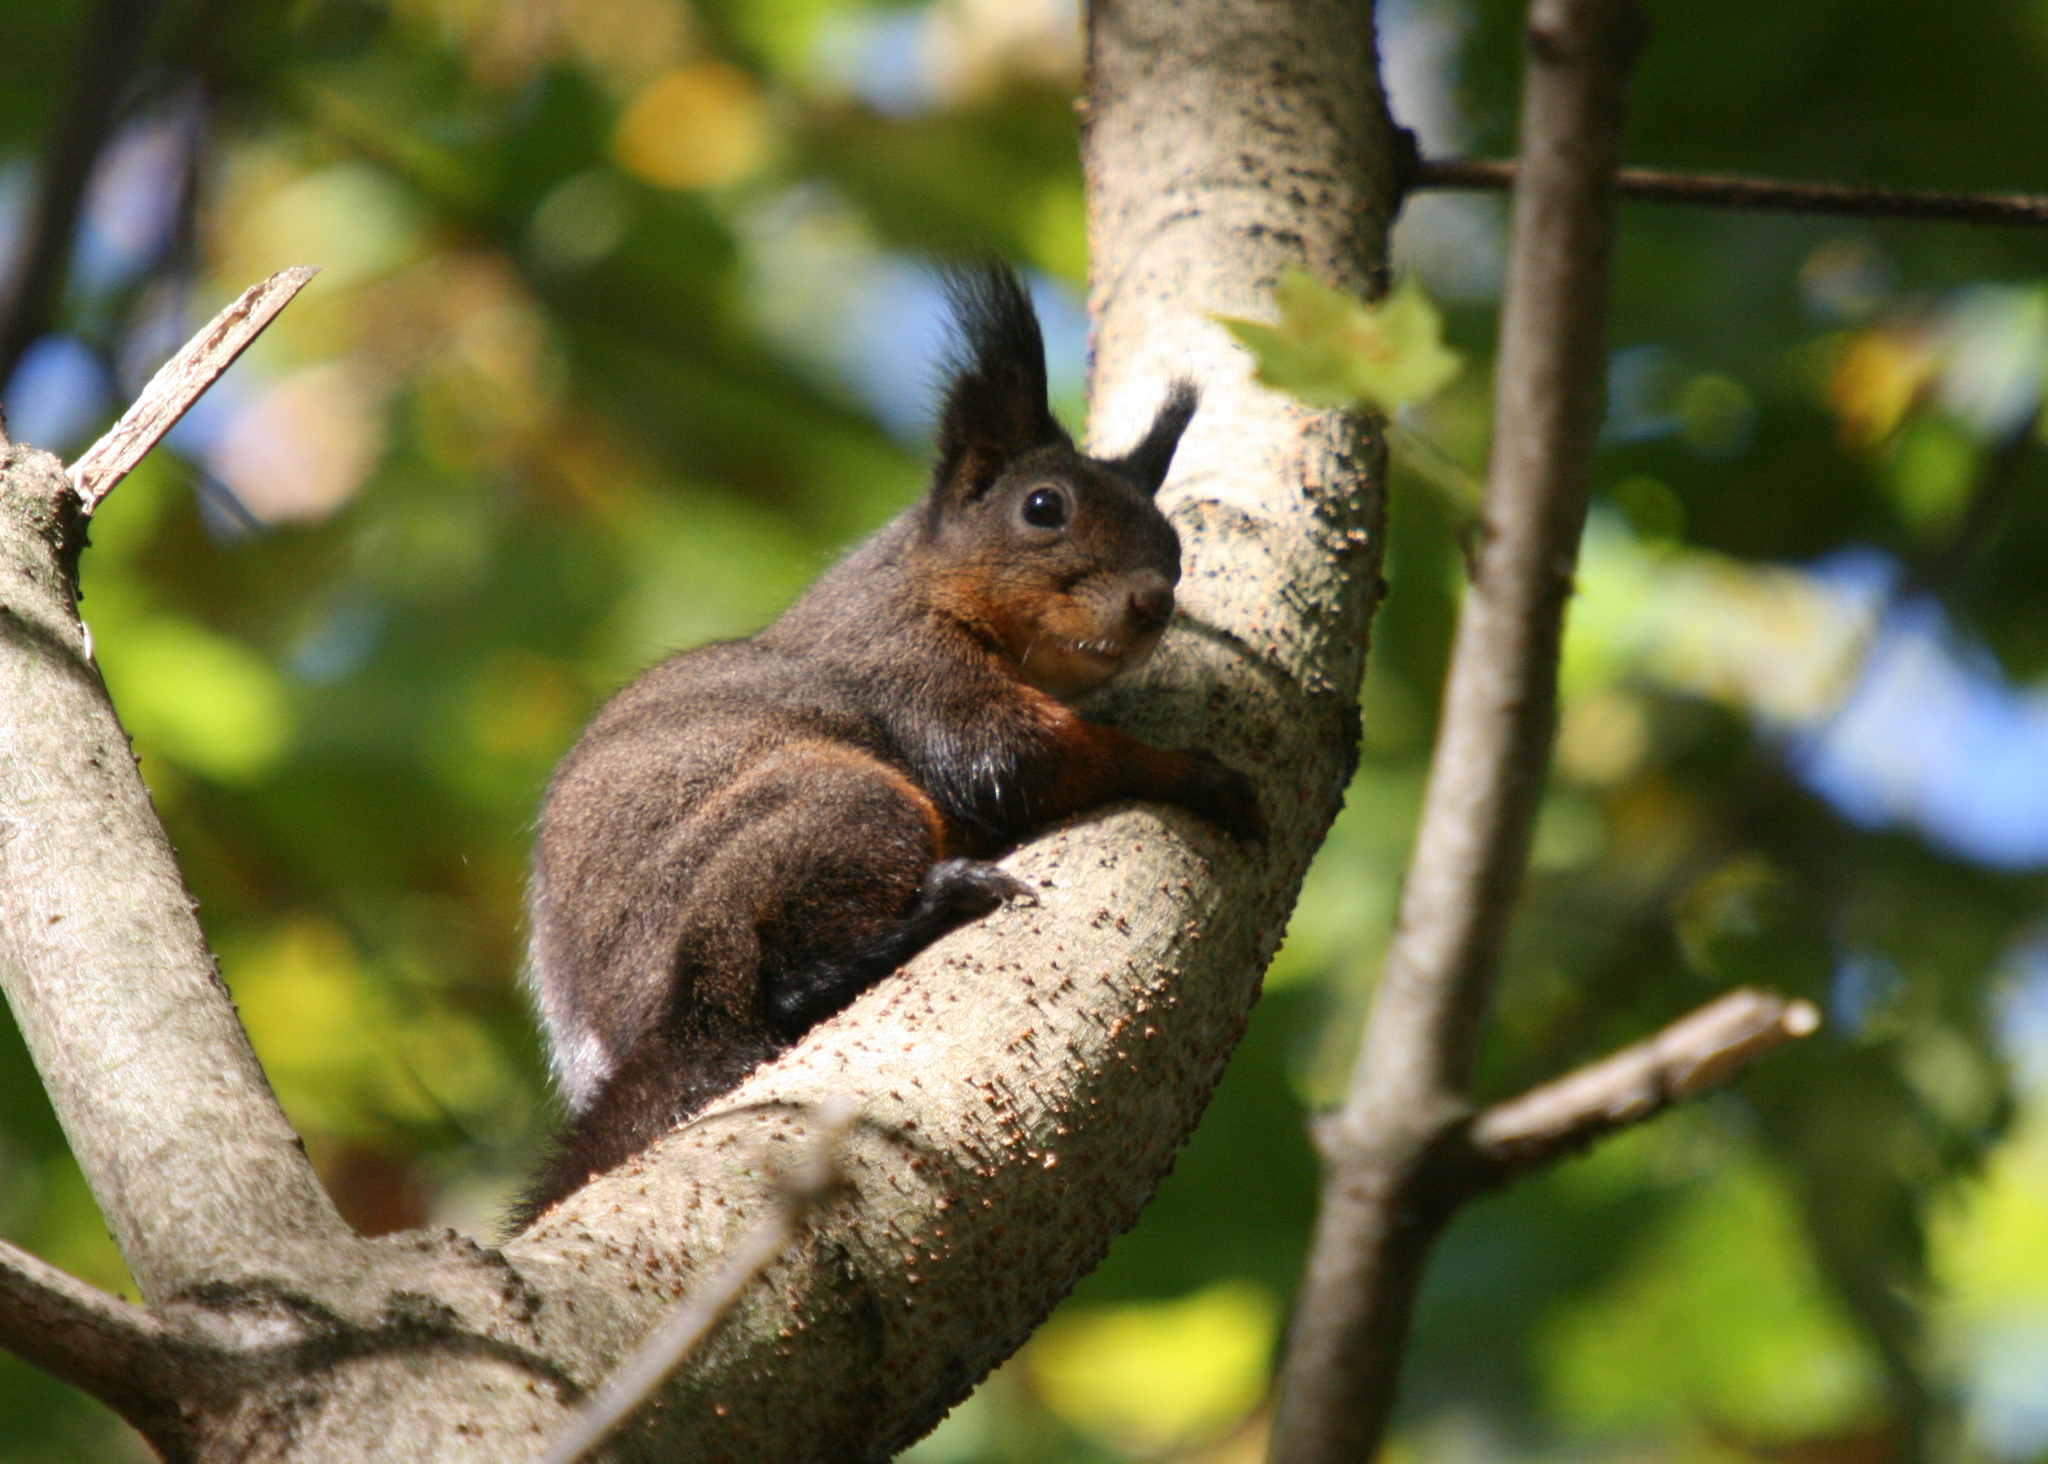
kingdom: Animalia
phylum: Chordata
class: Mammalia
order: Rodentia
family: Sciuridae
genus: Sciurus
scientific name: Sciurus vulgaris
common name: Eurasian red squirrel
